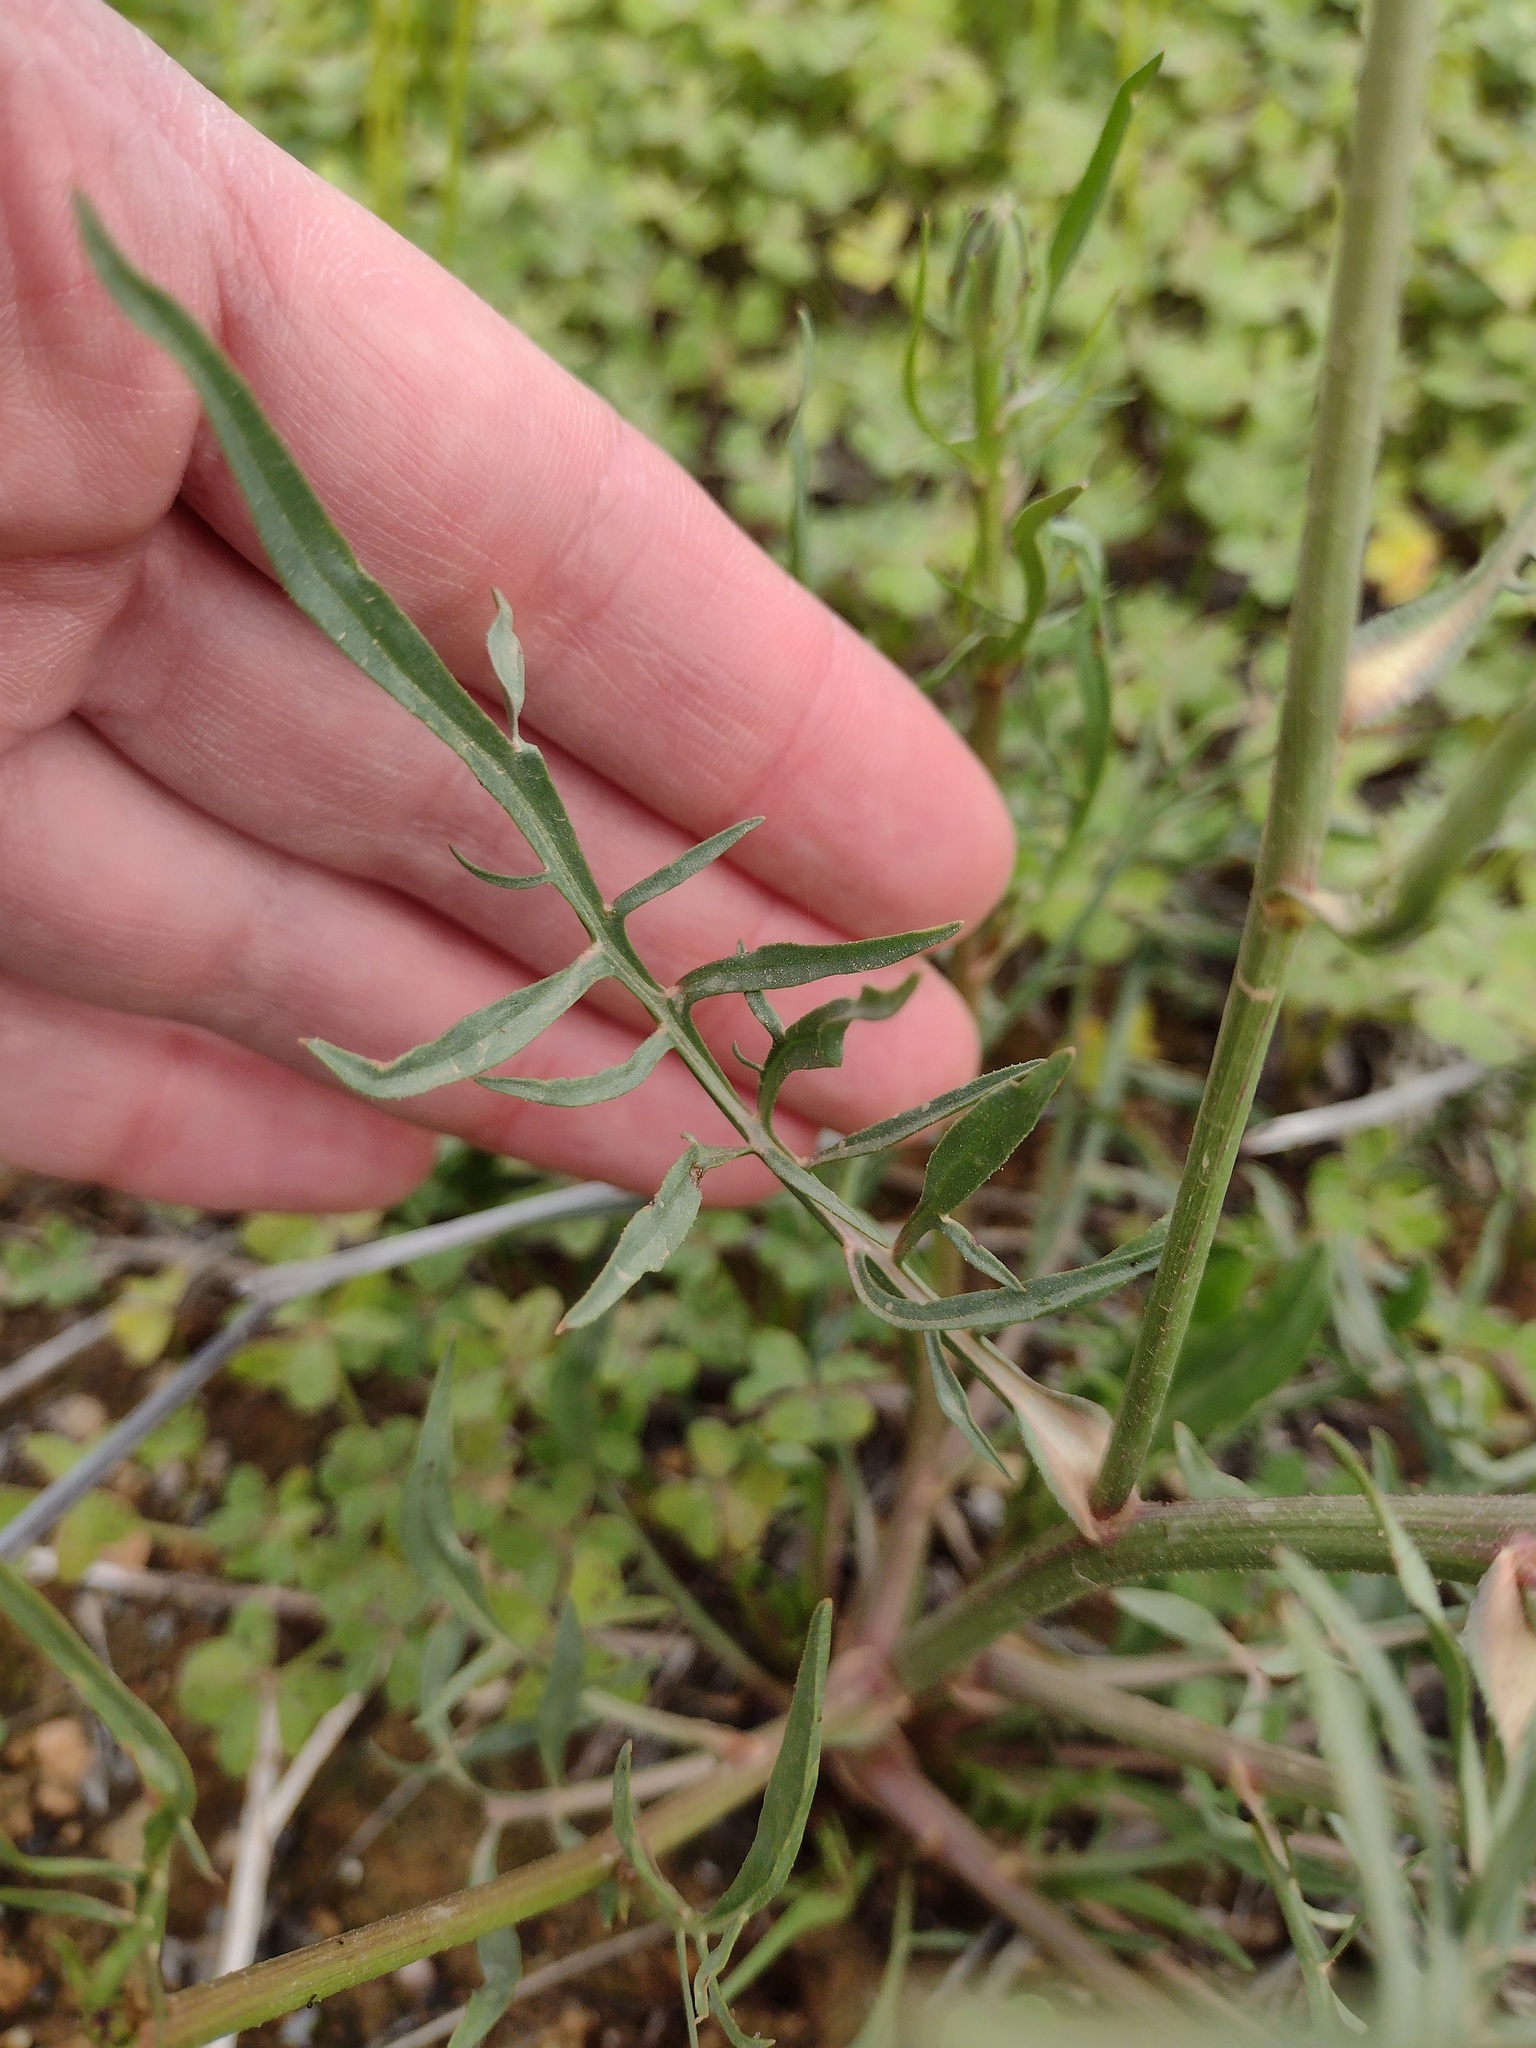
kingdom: Plantae
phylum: Tracheophyta
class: Magnoliopsida
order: Asterales
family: Asteraceae
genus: Scorzonera
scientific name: Scorzonera laciniata
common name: Cutleaf vipergrass
